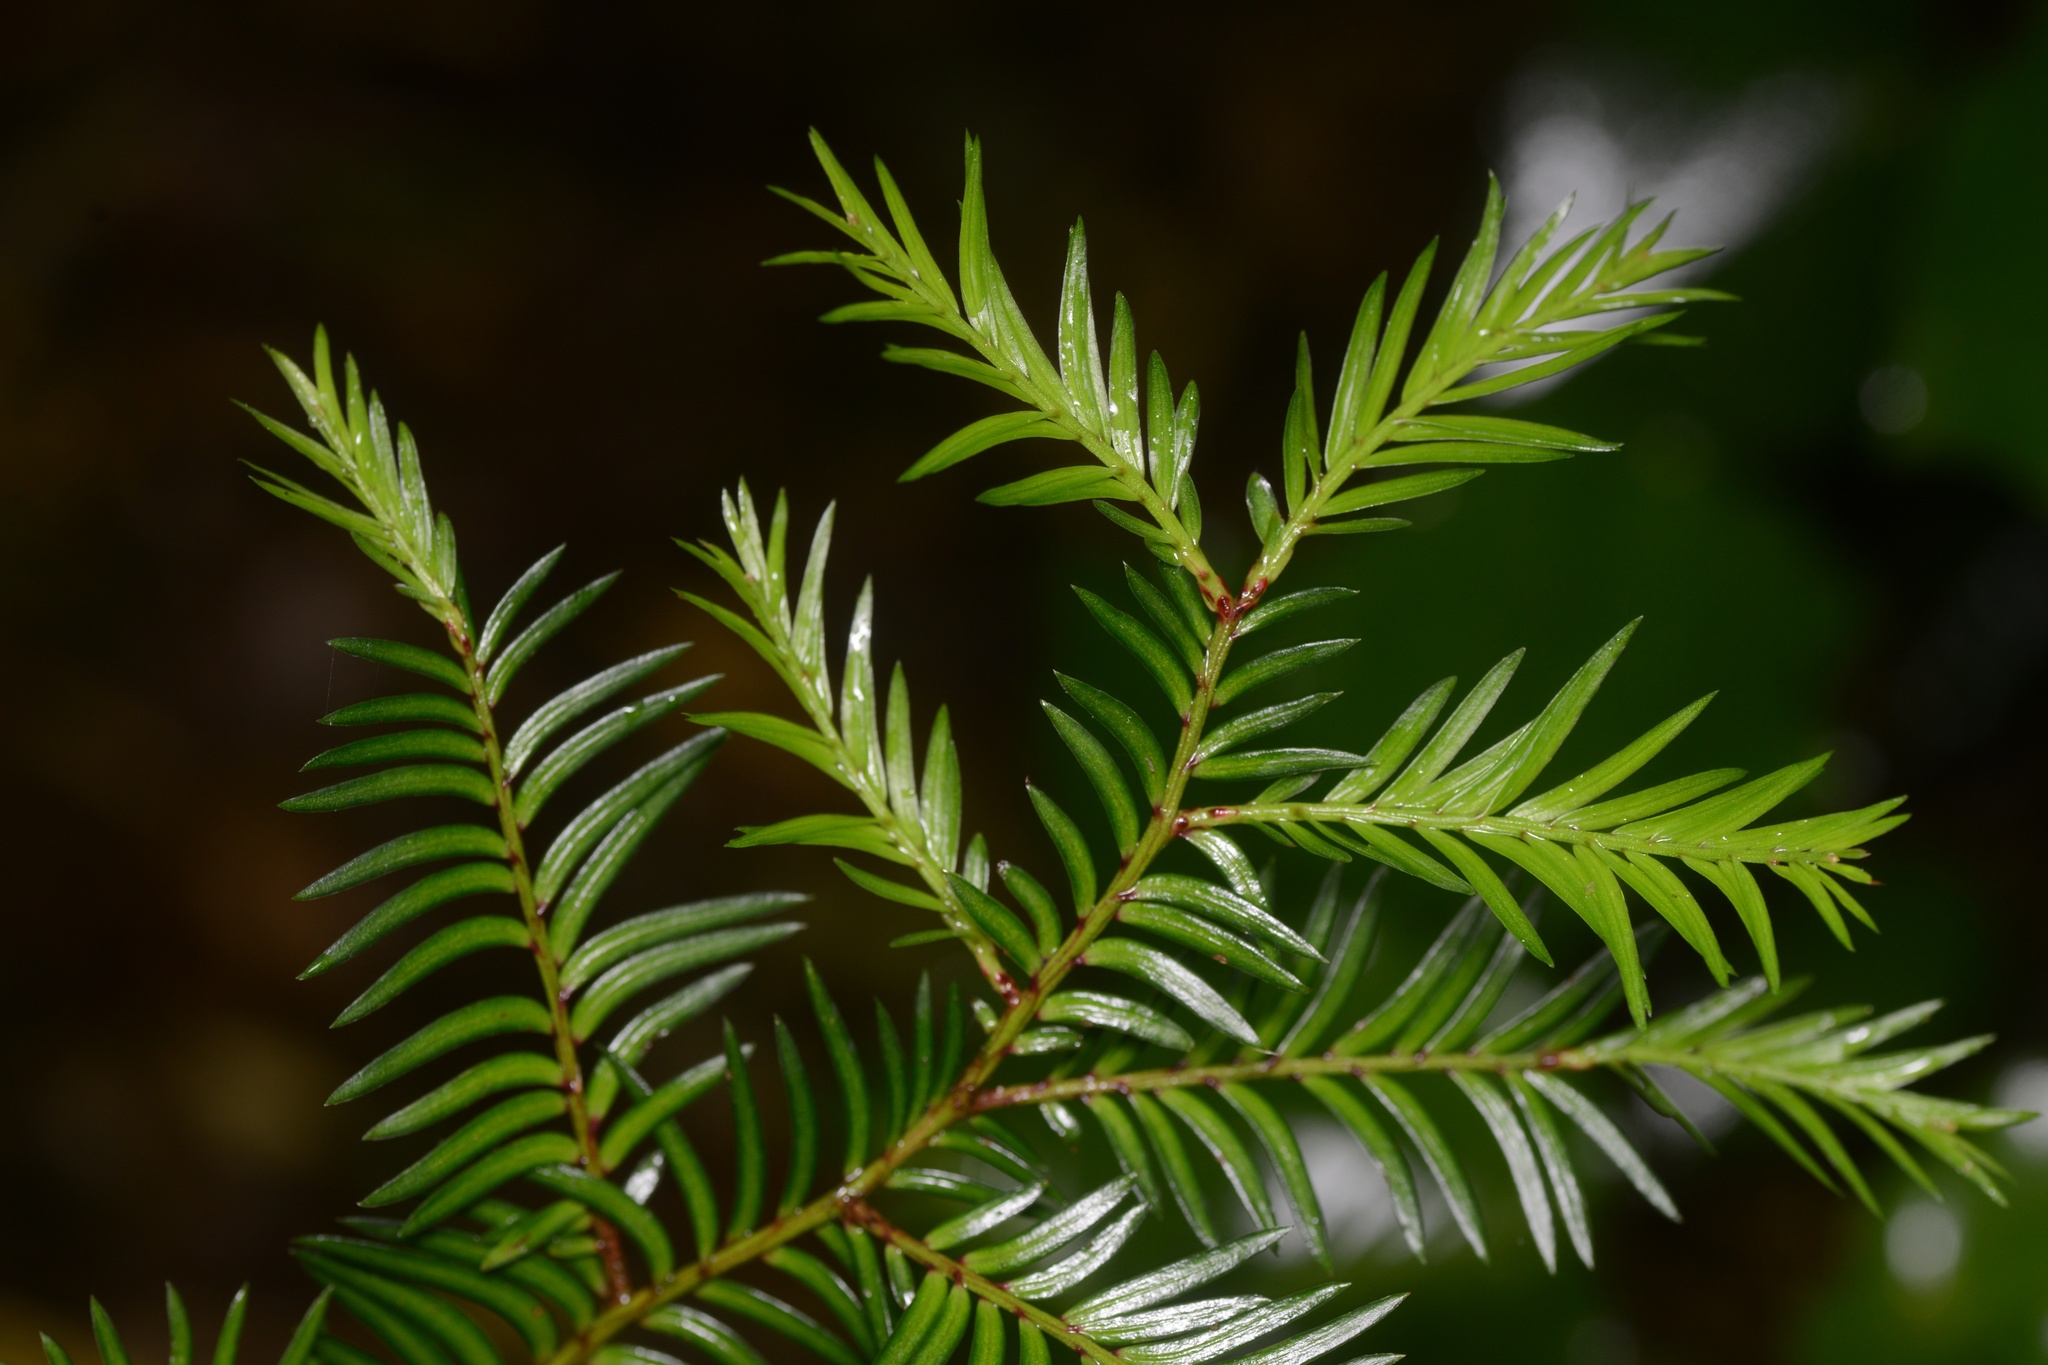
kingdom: Plantae
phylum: Tracheophyta
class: Pinopsida
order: Pinales
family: Podocarpaceae
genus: Prumnopitys
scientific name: Prumnopitys ferruginea
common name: Brown pine
